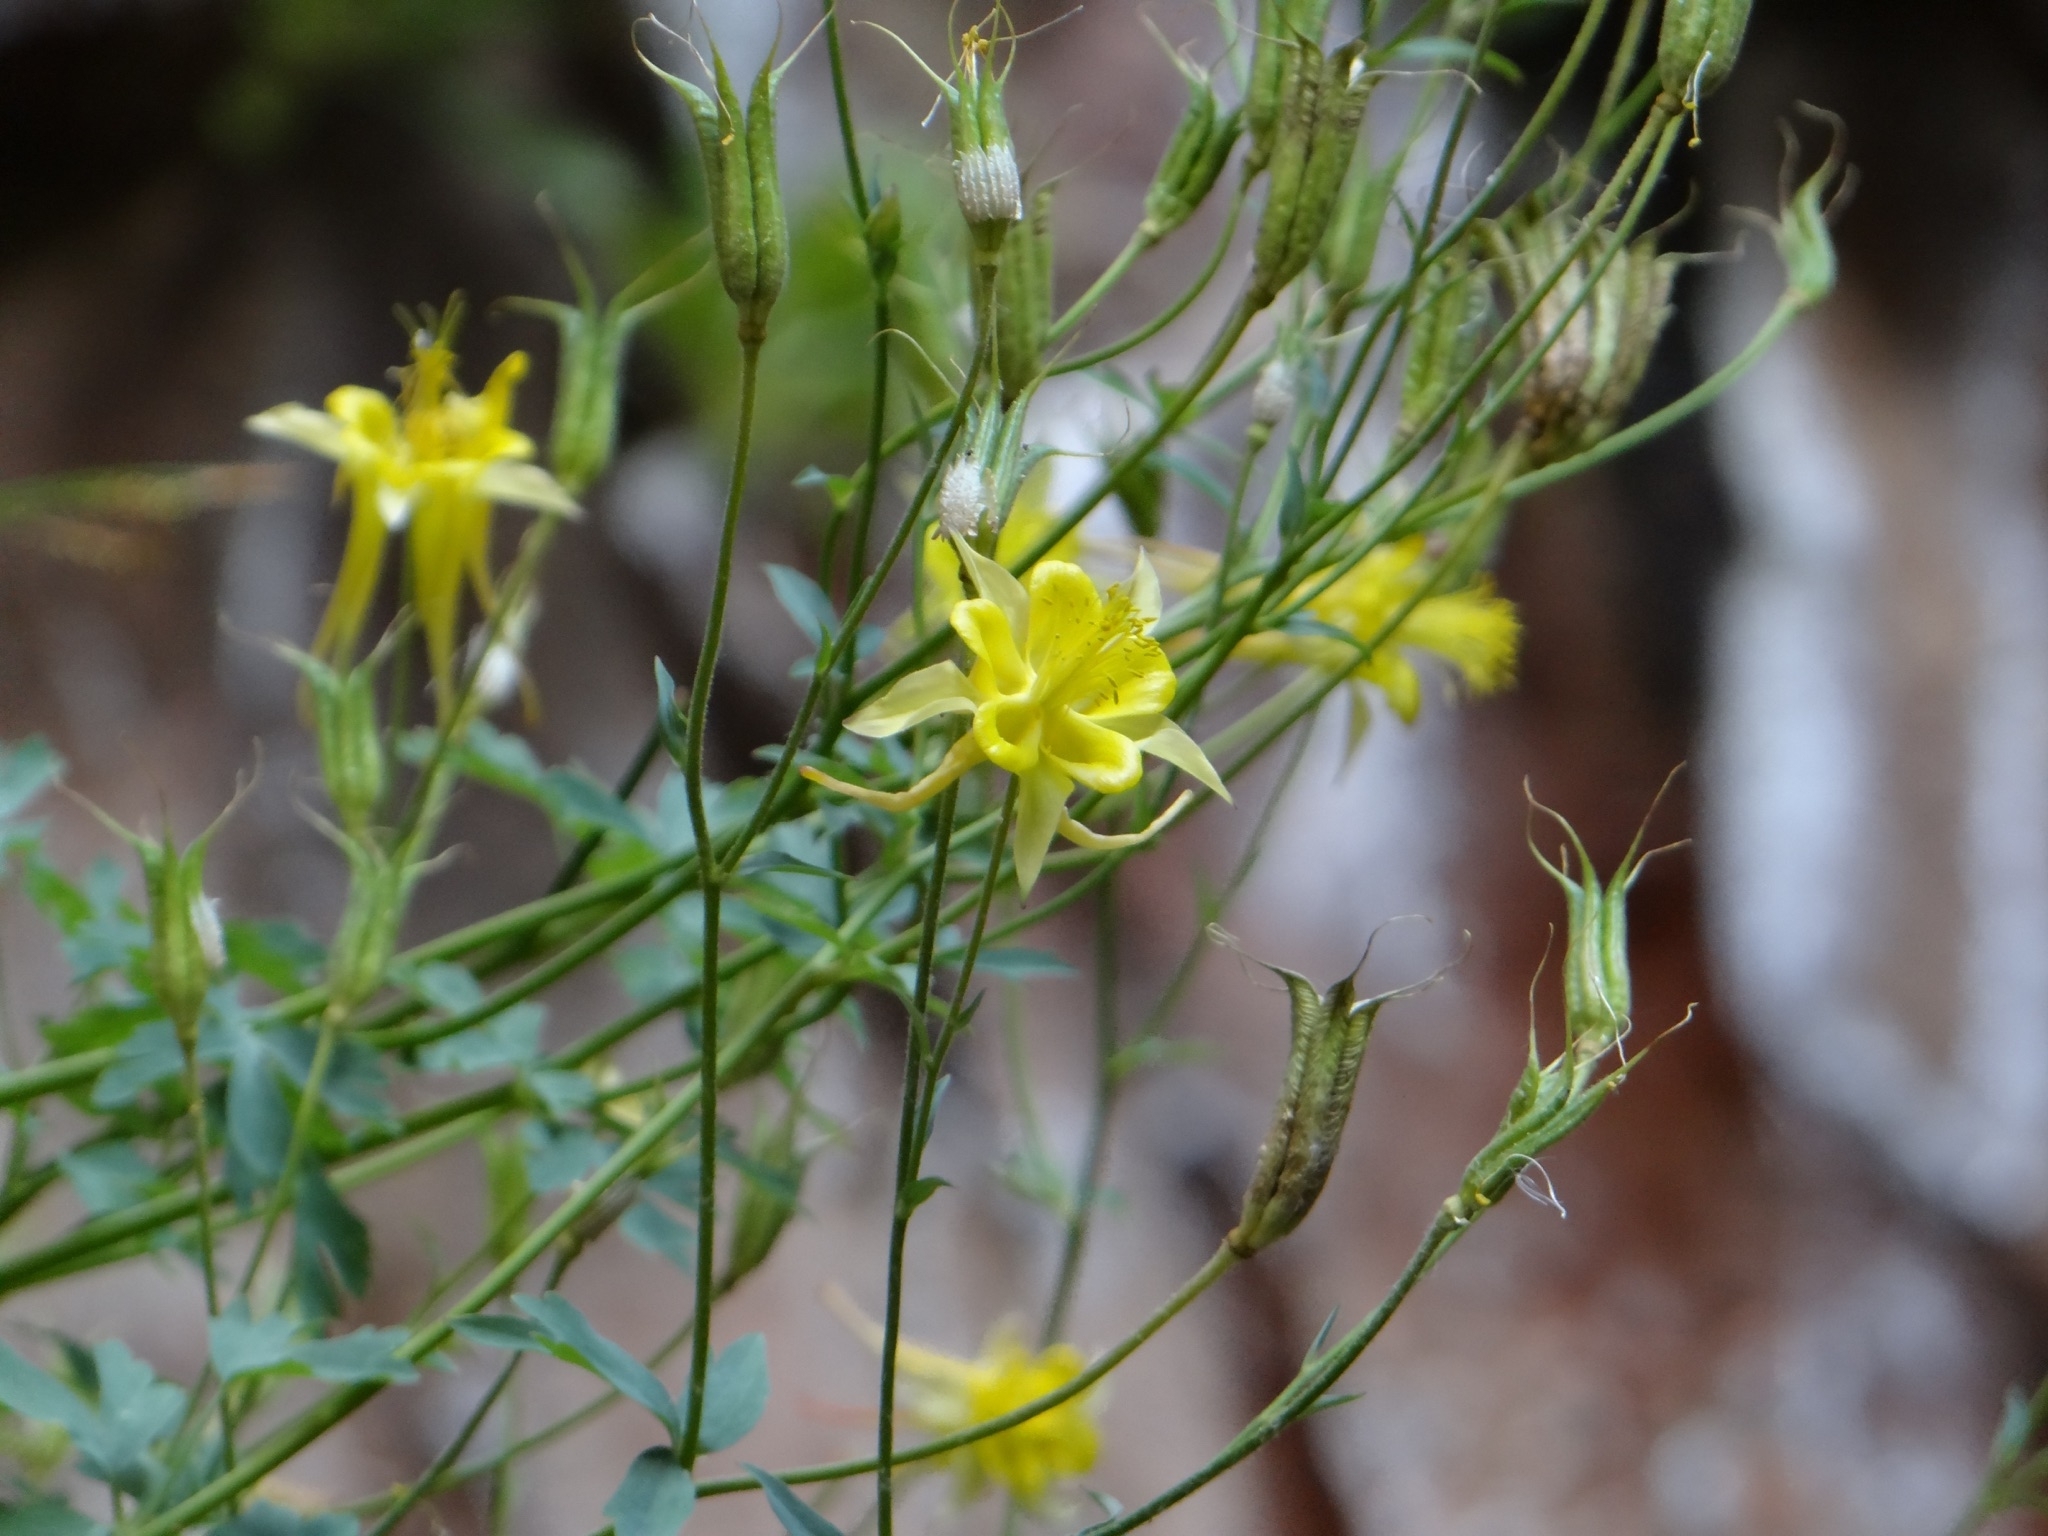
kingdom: Plantae
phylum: Tracheophyta
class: Magnoliopsida
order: Ranunculales
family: Ranunculaceae
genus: Aquilegia
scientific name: Aquilegia chrysantha
